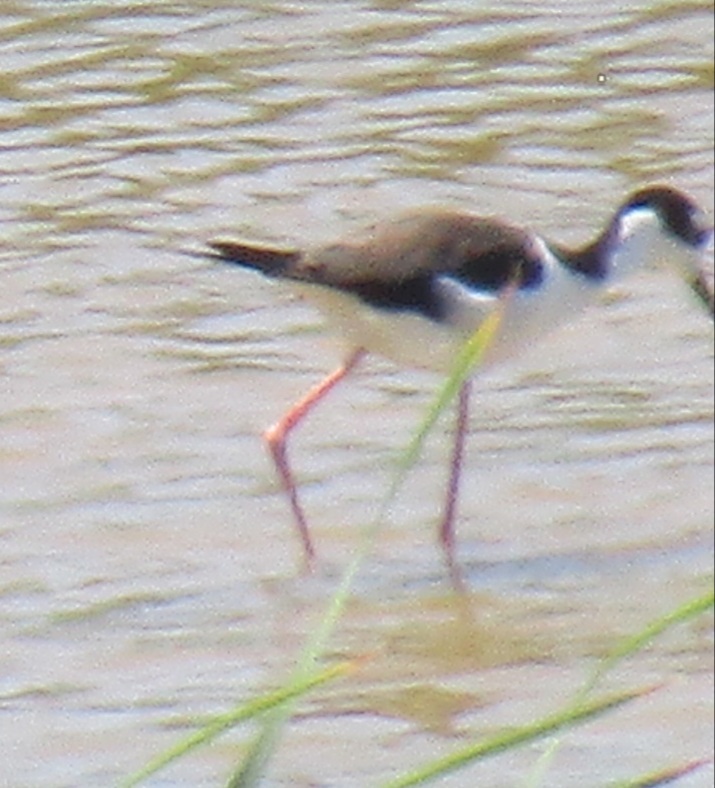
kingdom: Animalia
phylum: Chordata
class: Aves
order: Charadriiformes
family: Recurvirostridae
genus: Himantopus
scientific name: Himantopus mexicanus
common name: Black-necked stilt
